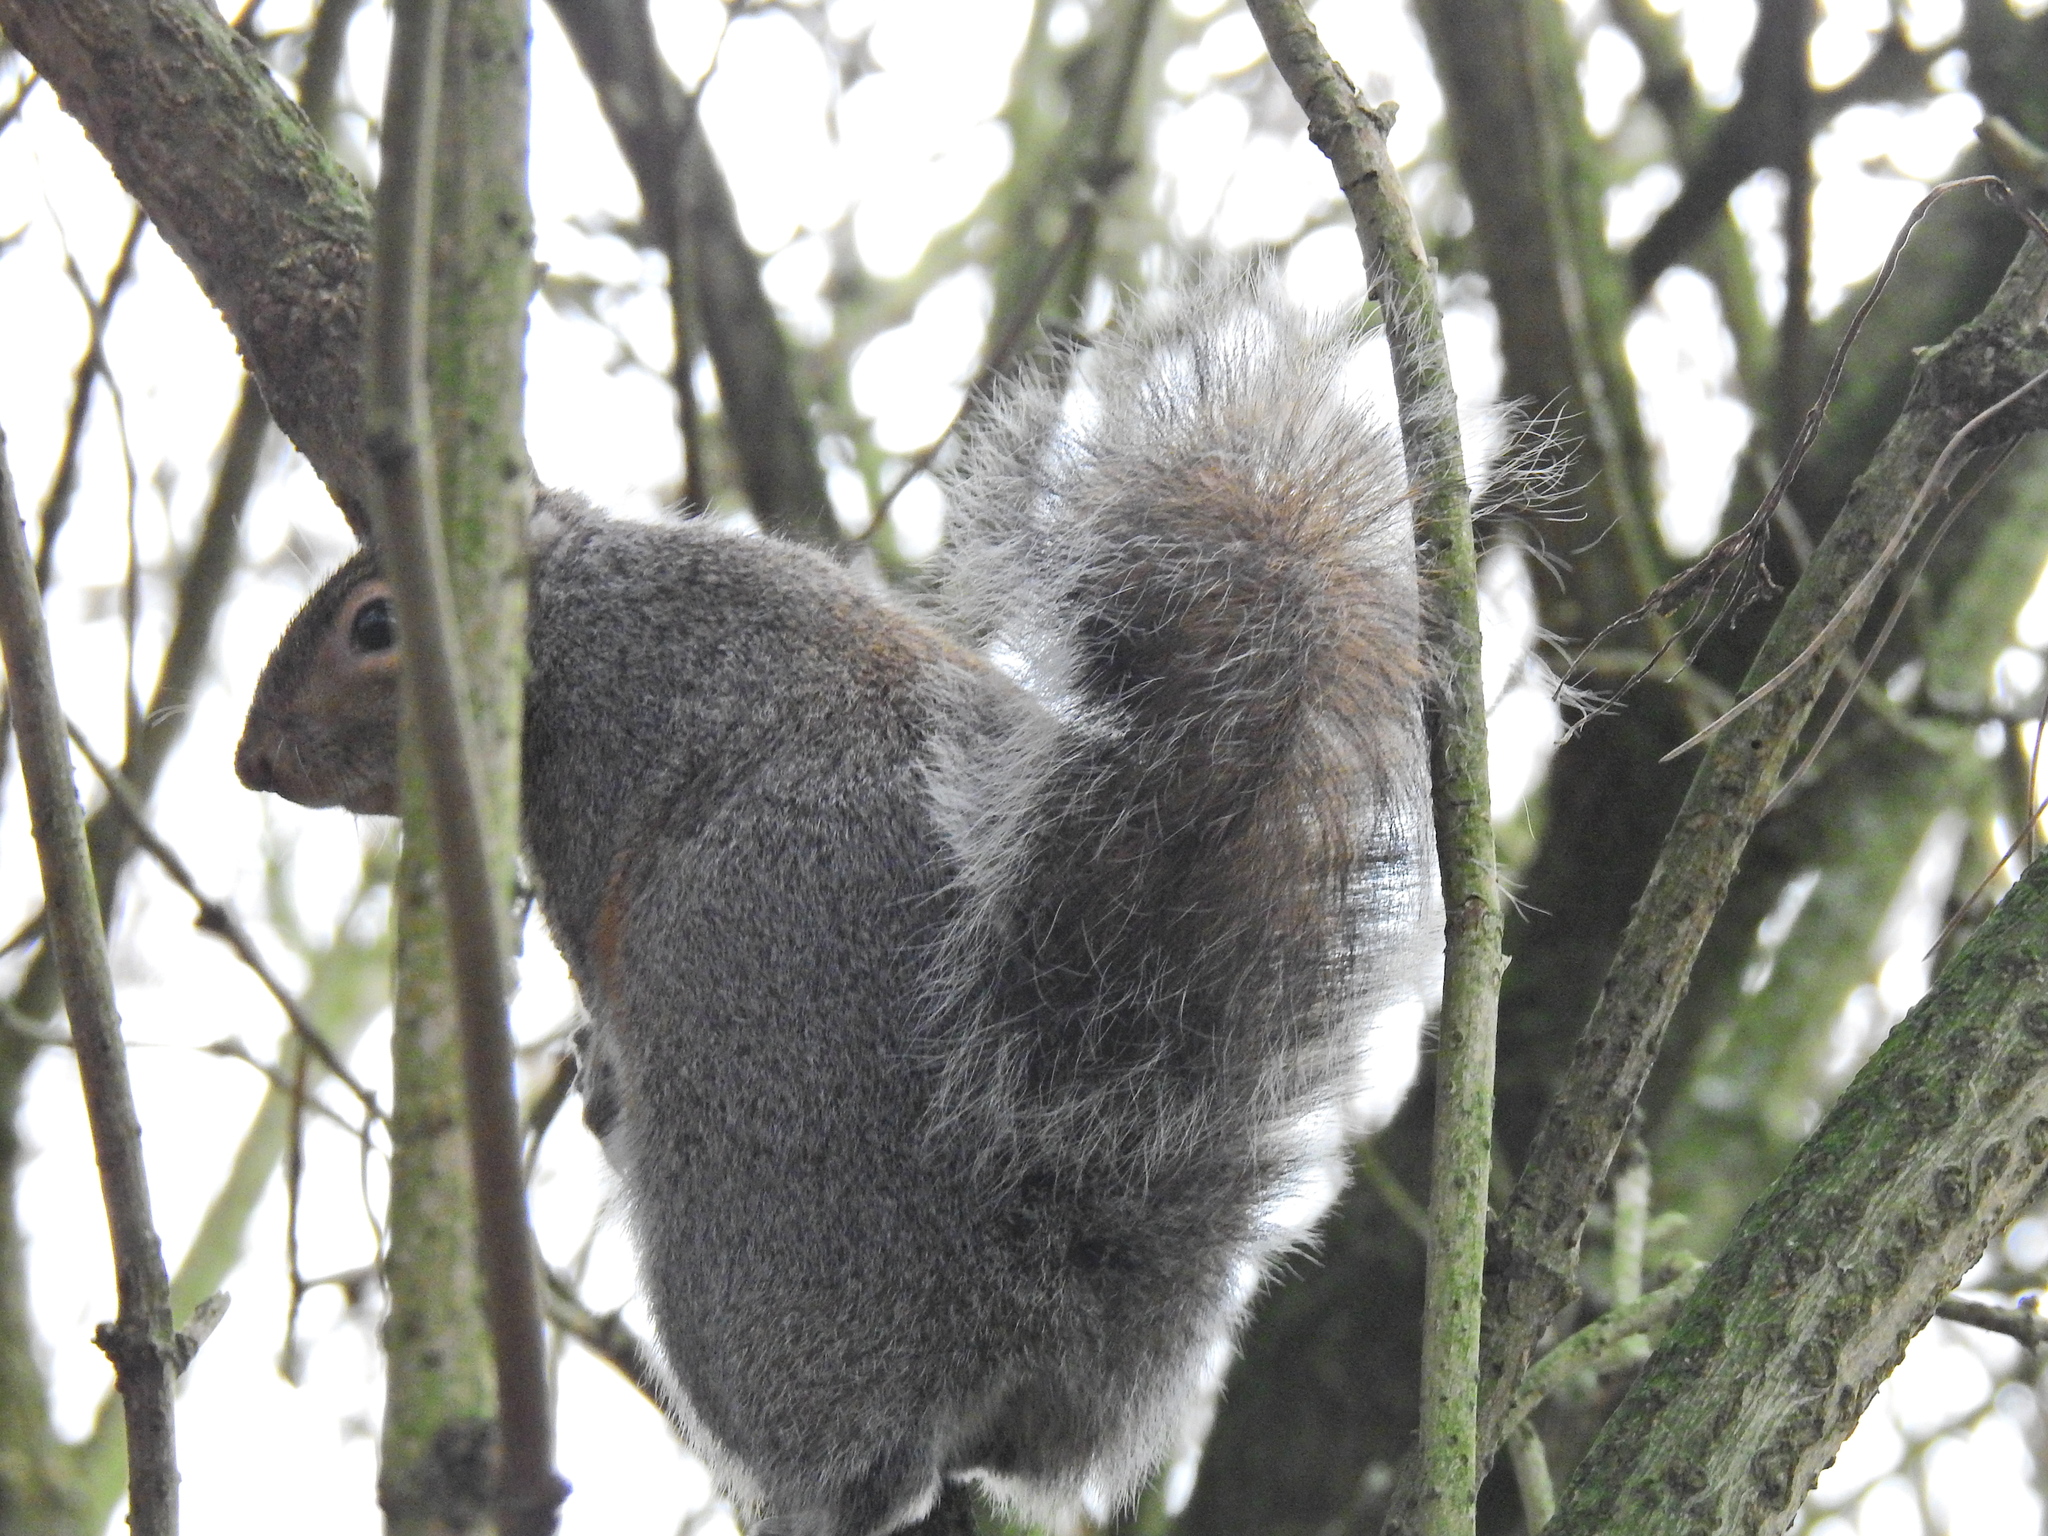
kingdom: Animalia
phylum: Chordata
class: Mammalia
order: Rodentia
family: Sciuridae
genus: Sciurus
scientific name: Sciurus carolinensis
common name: Eastern gray squirrel
